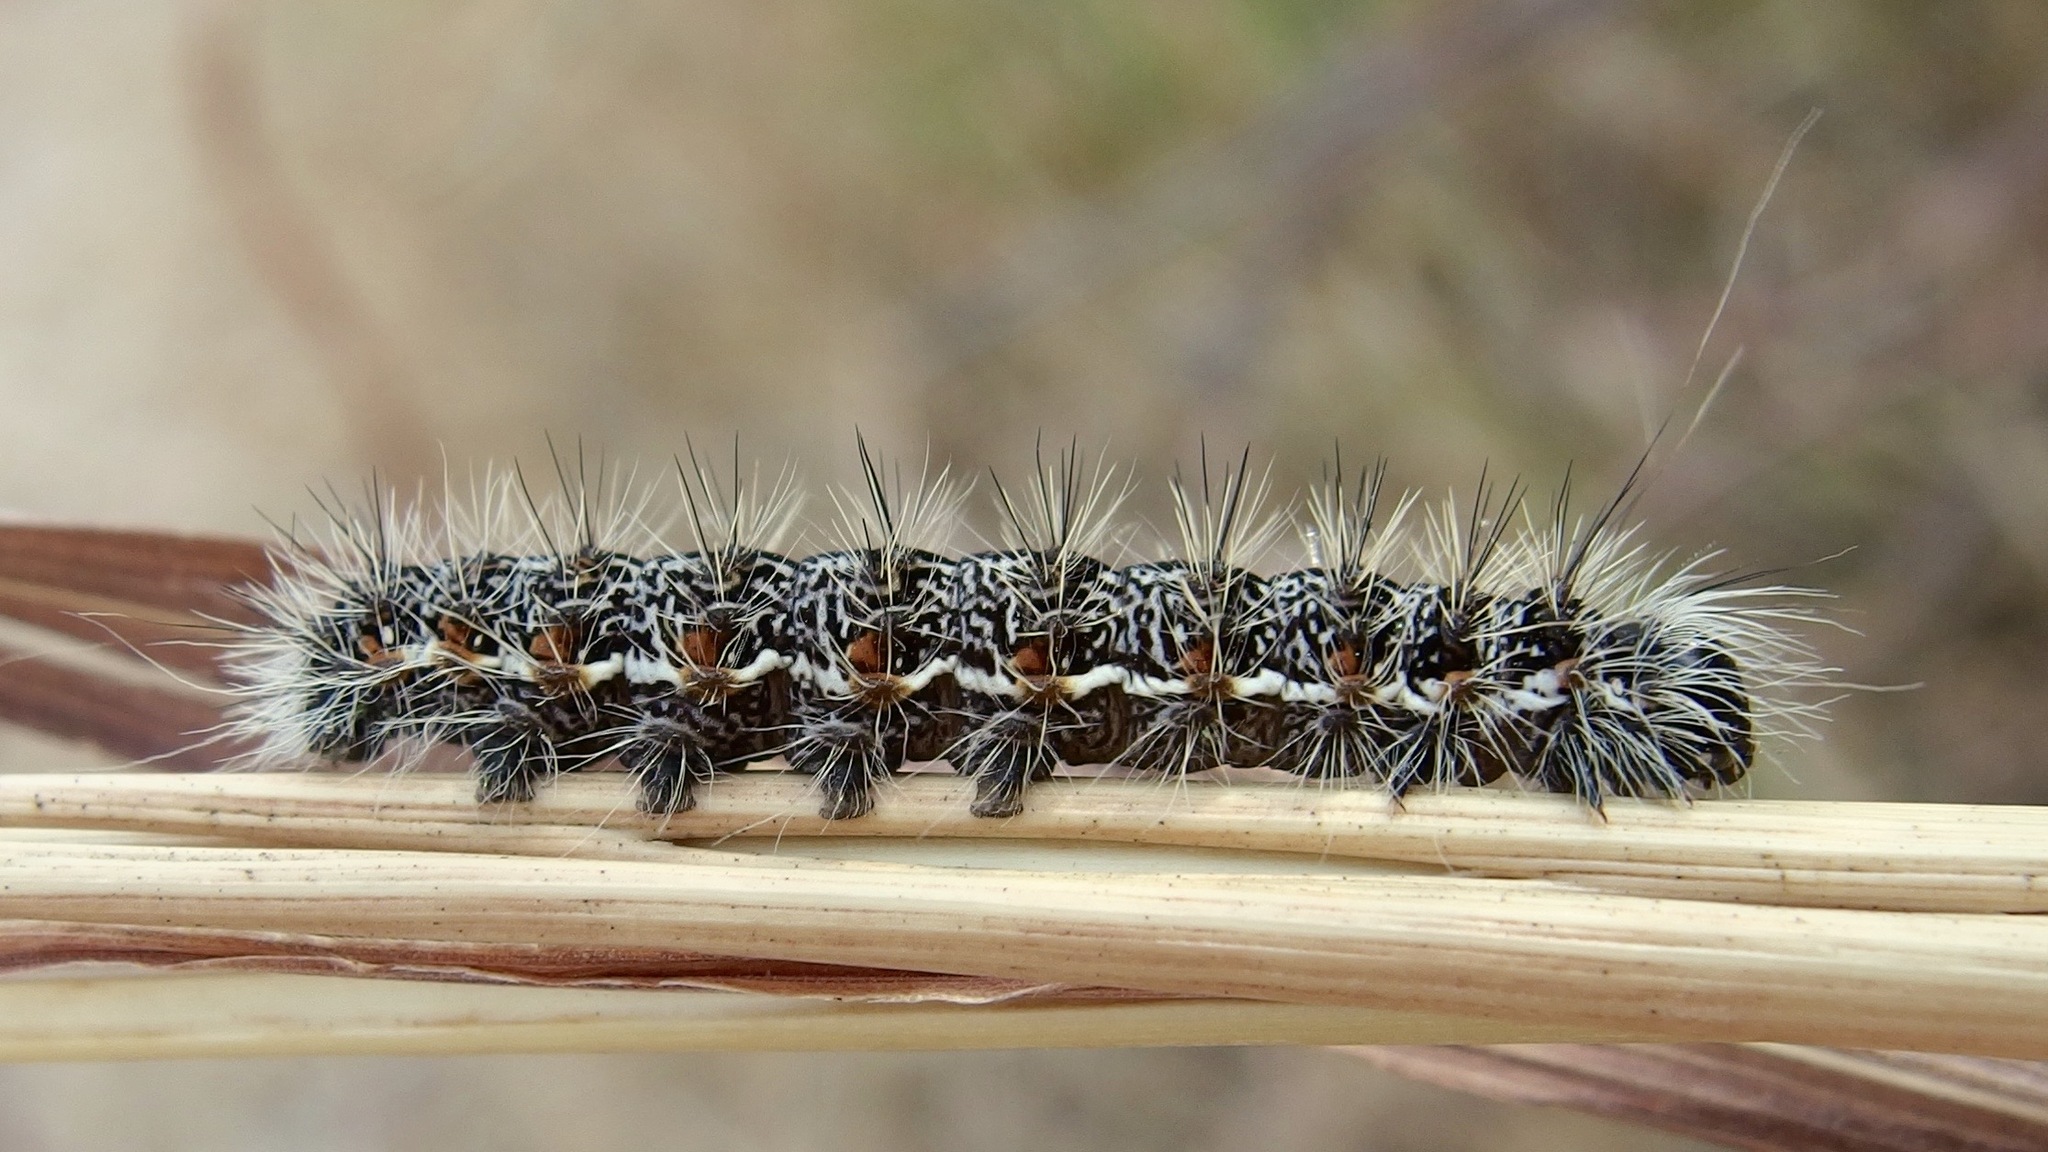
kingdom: Animalia
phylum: Arthropoda
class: Insecta
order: Lepidoptera
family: Noctuidae
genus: Acronicta
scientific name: Acronicta insularis
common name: Henry's marsh moth
